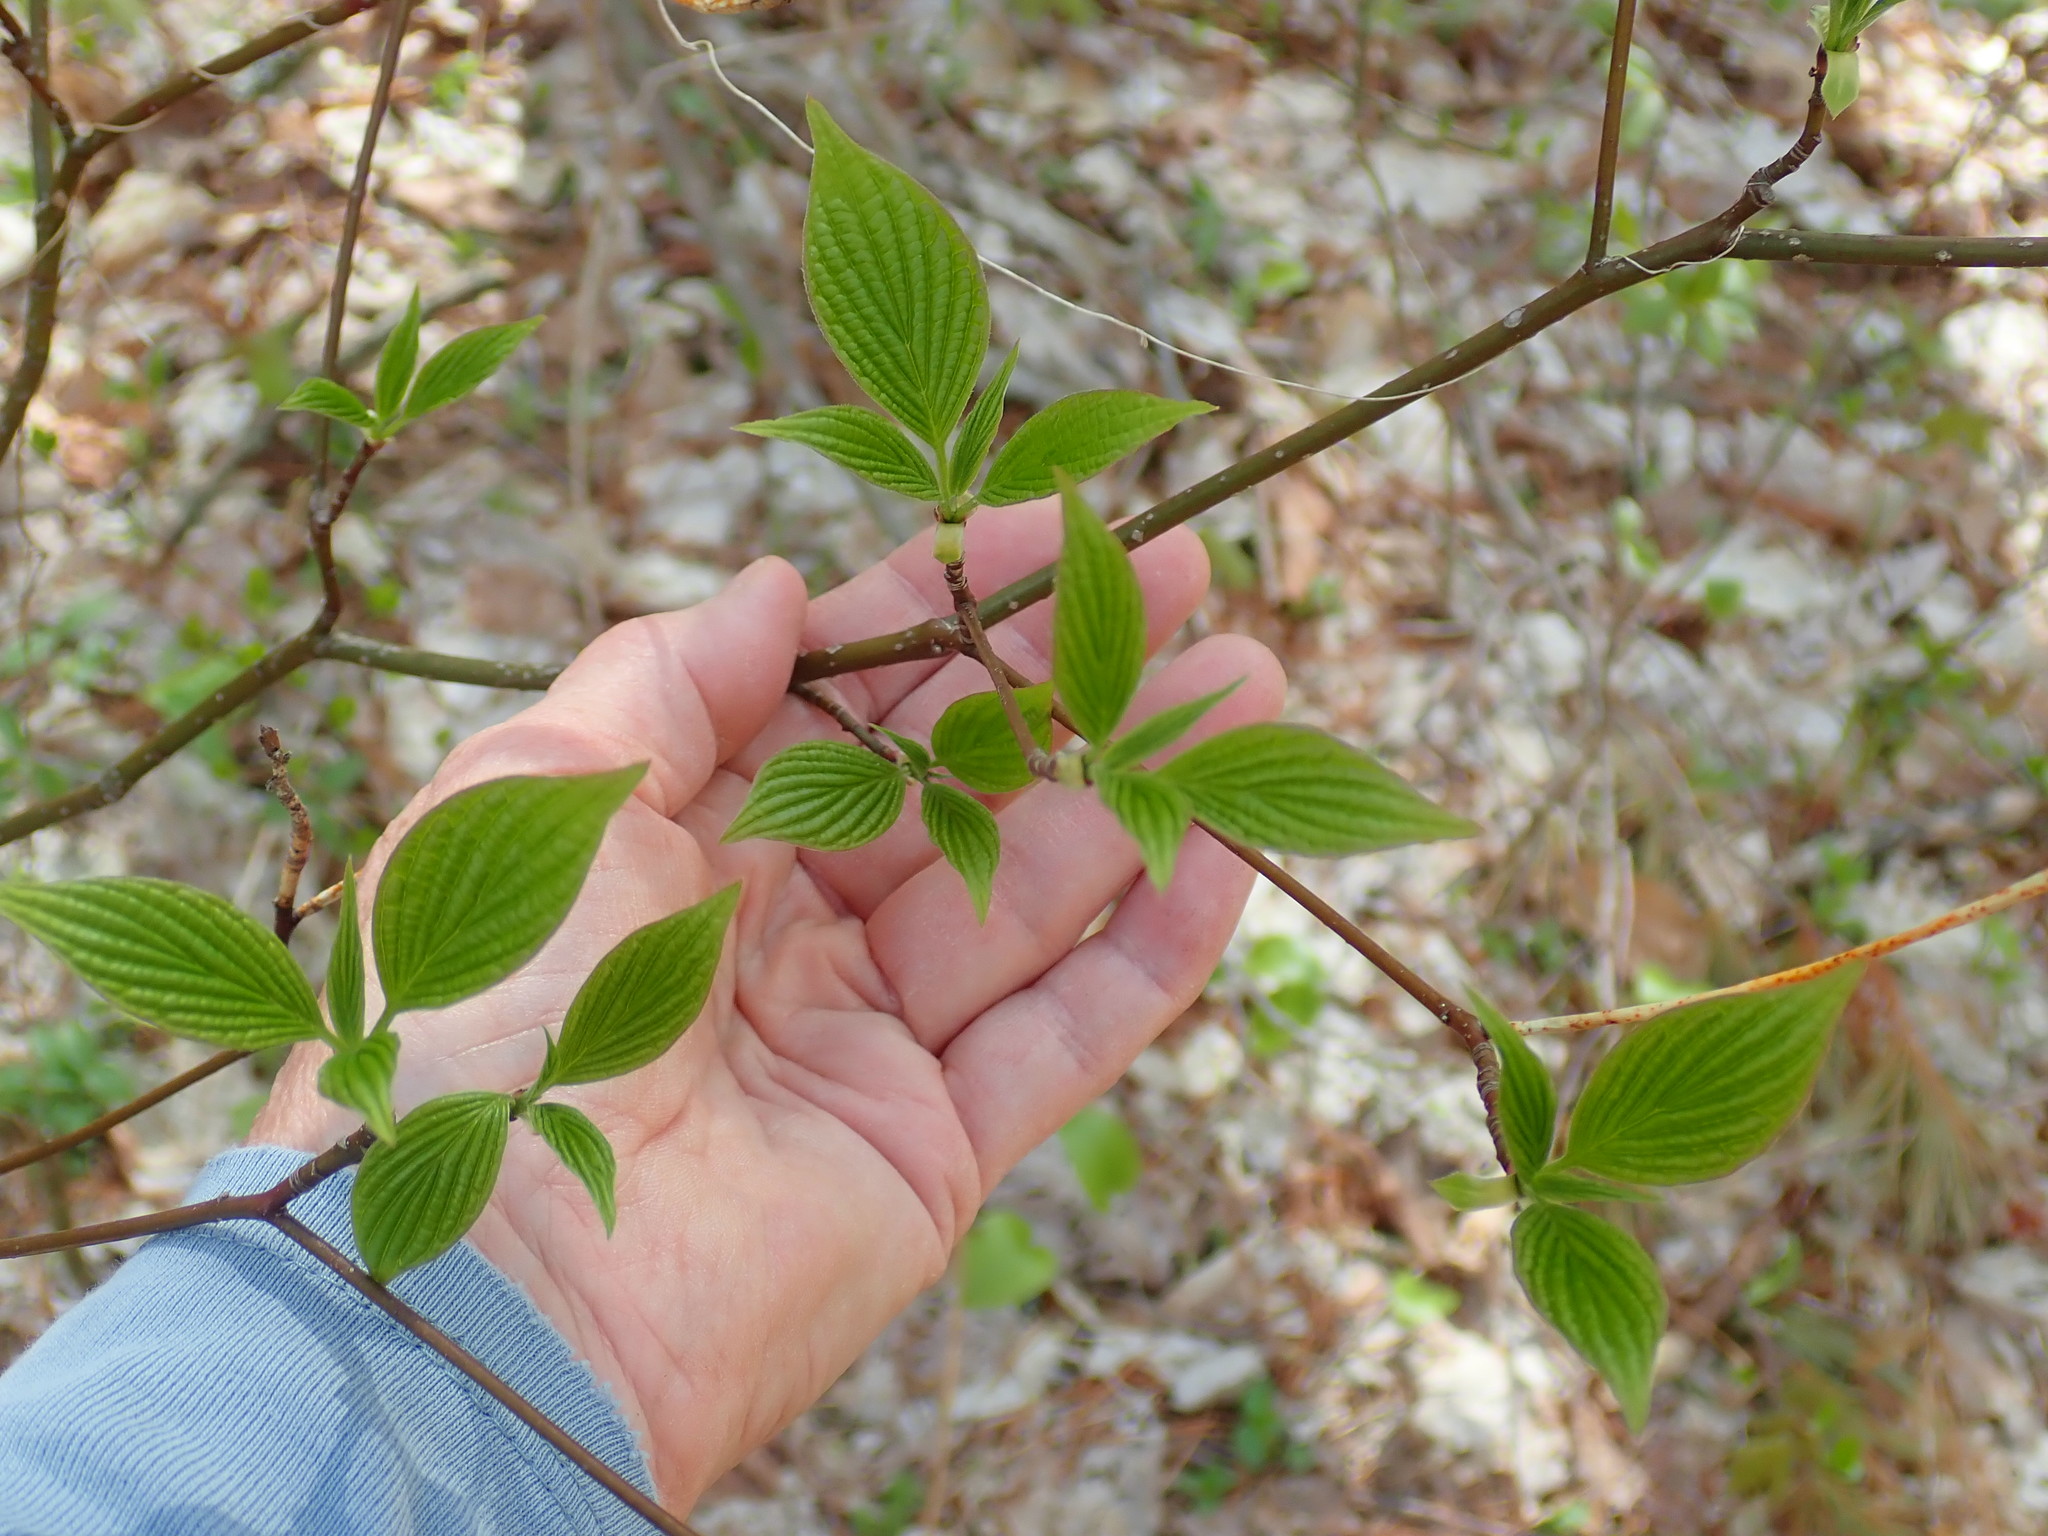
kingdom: Plantae
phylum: Tracheophyta
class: Magnoliopsida
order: Cornales
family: Cornaceae
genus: Cornus
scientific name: Cornus alternifolia
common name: Pagoda dogwood
